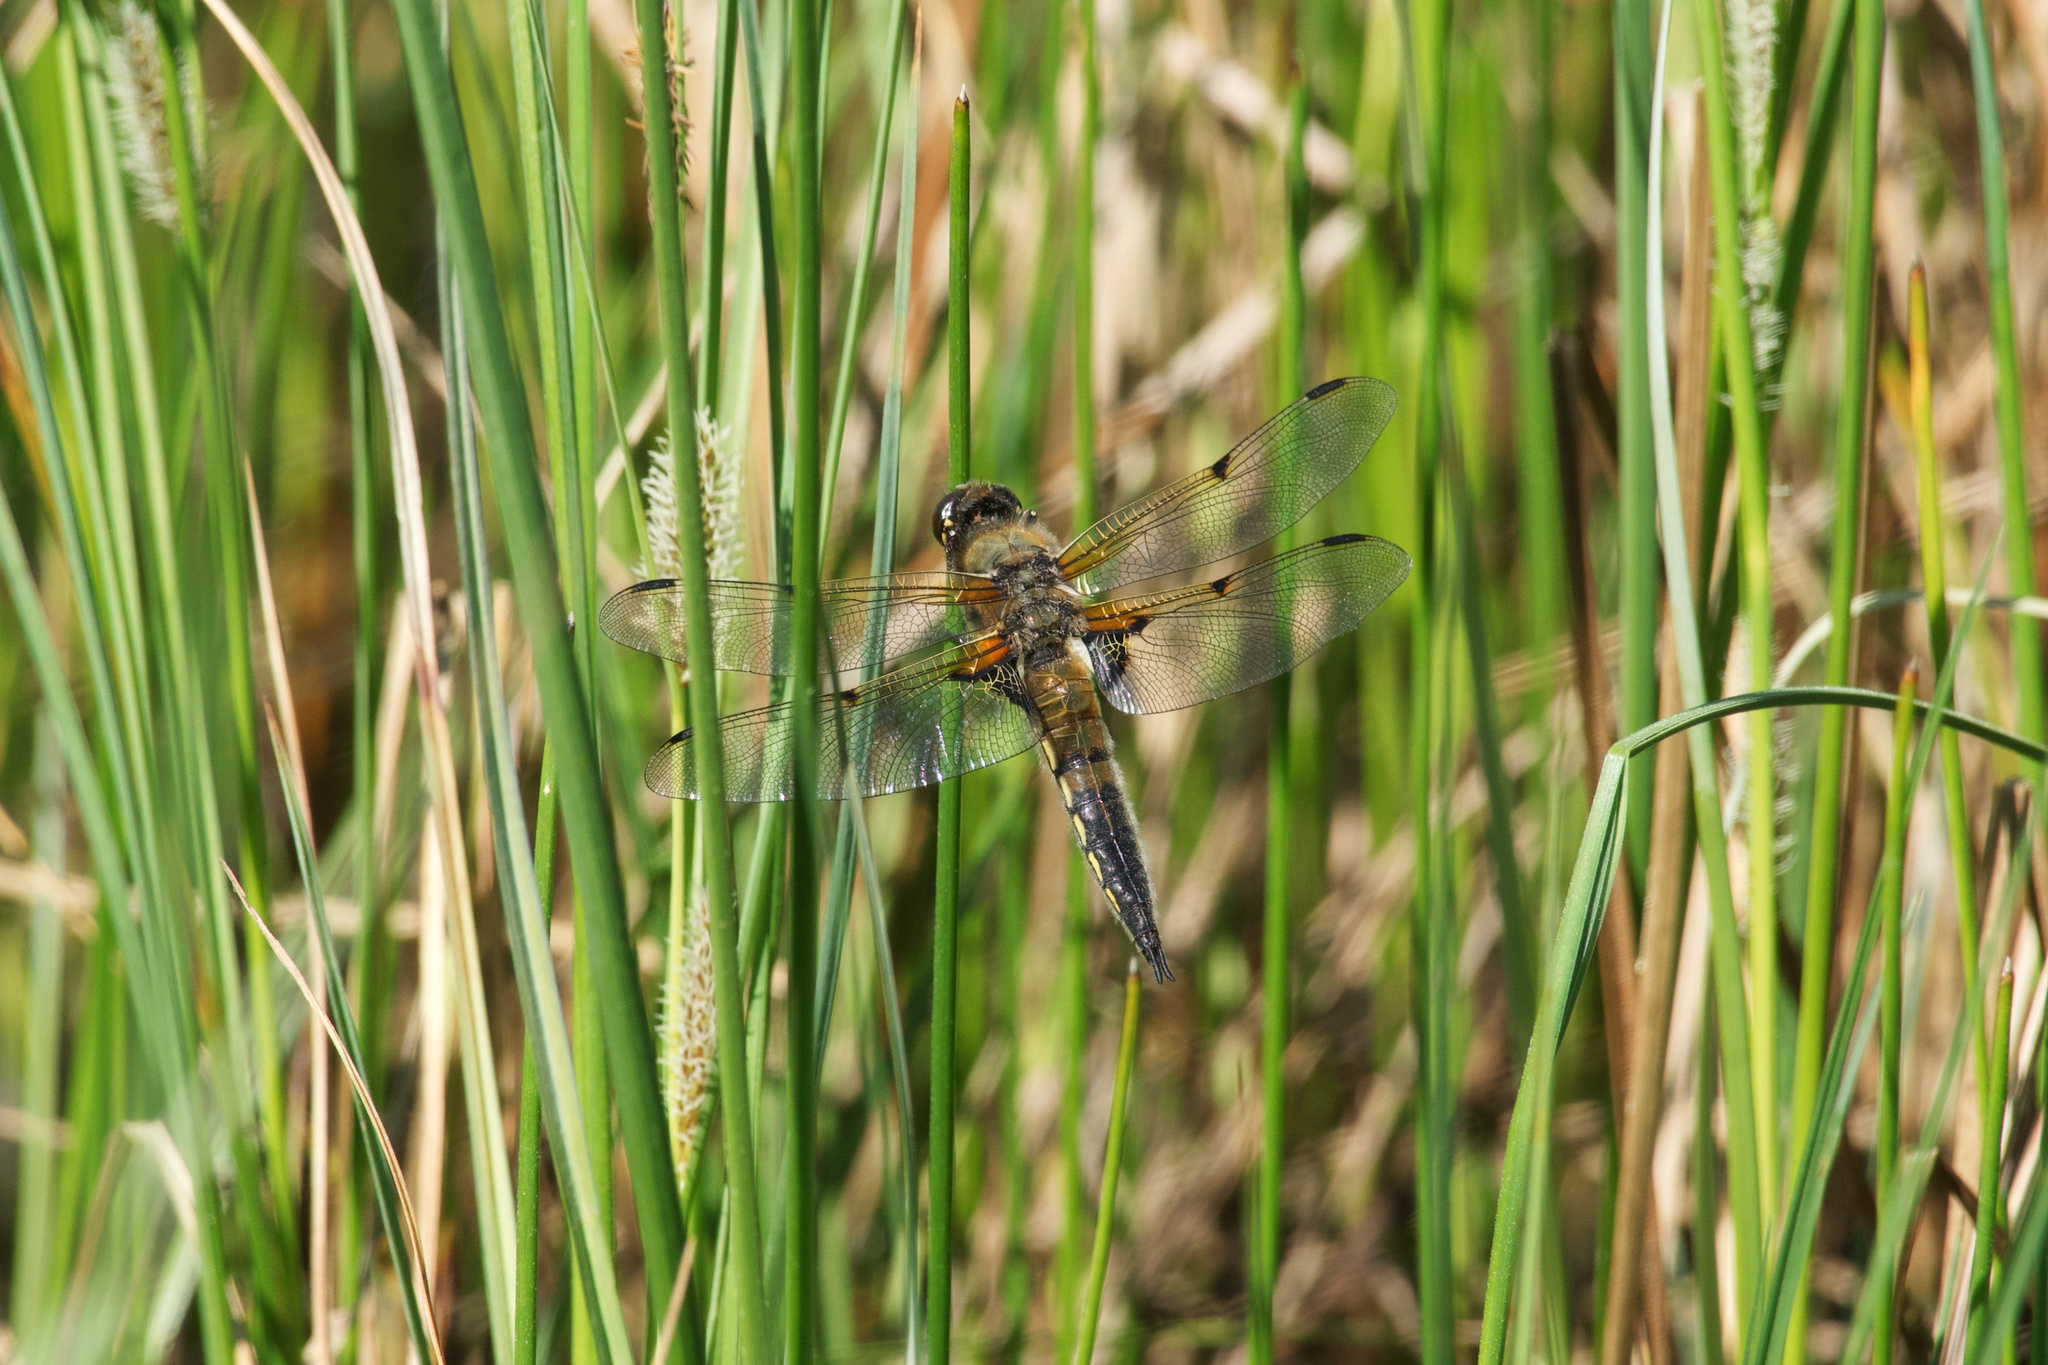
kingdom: Animalia
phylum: Arthropoda
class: Insecta
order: Odonata
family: Libellulidae
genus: Libellula
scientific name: Libellula quadrimaculata
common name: Four-spotted chaser
